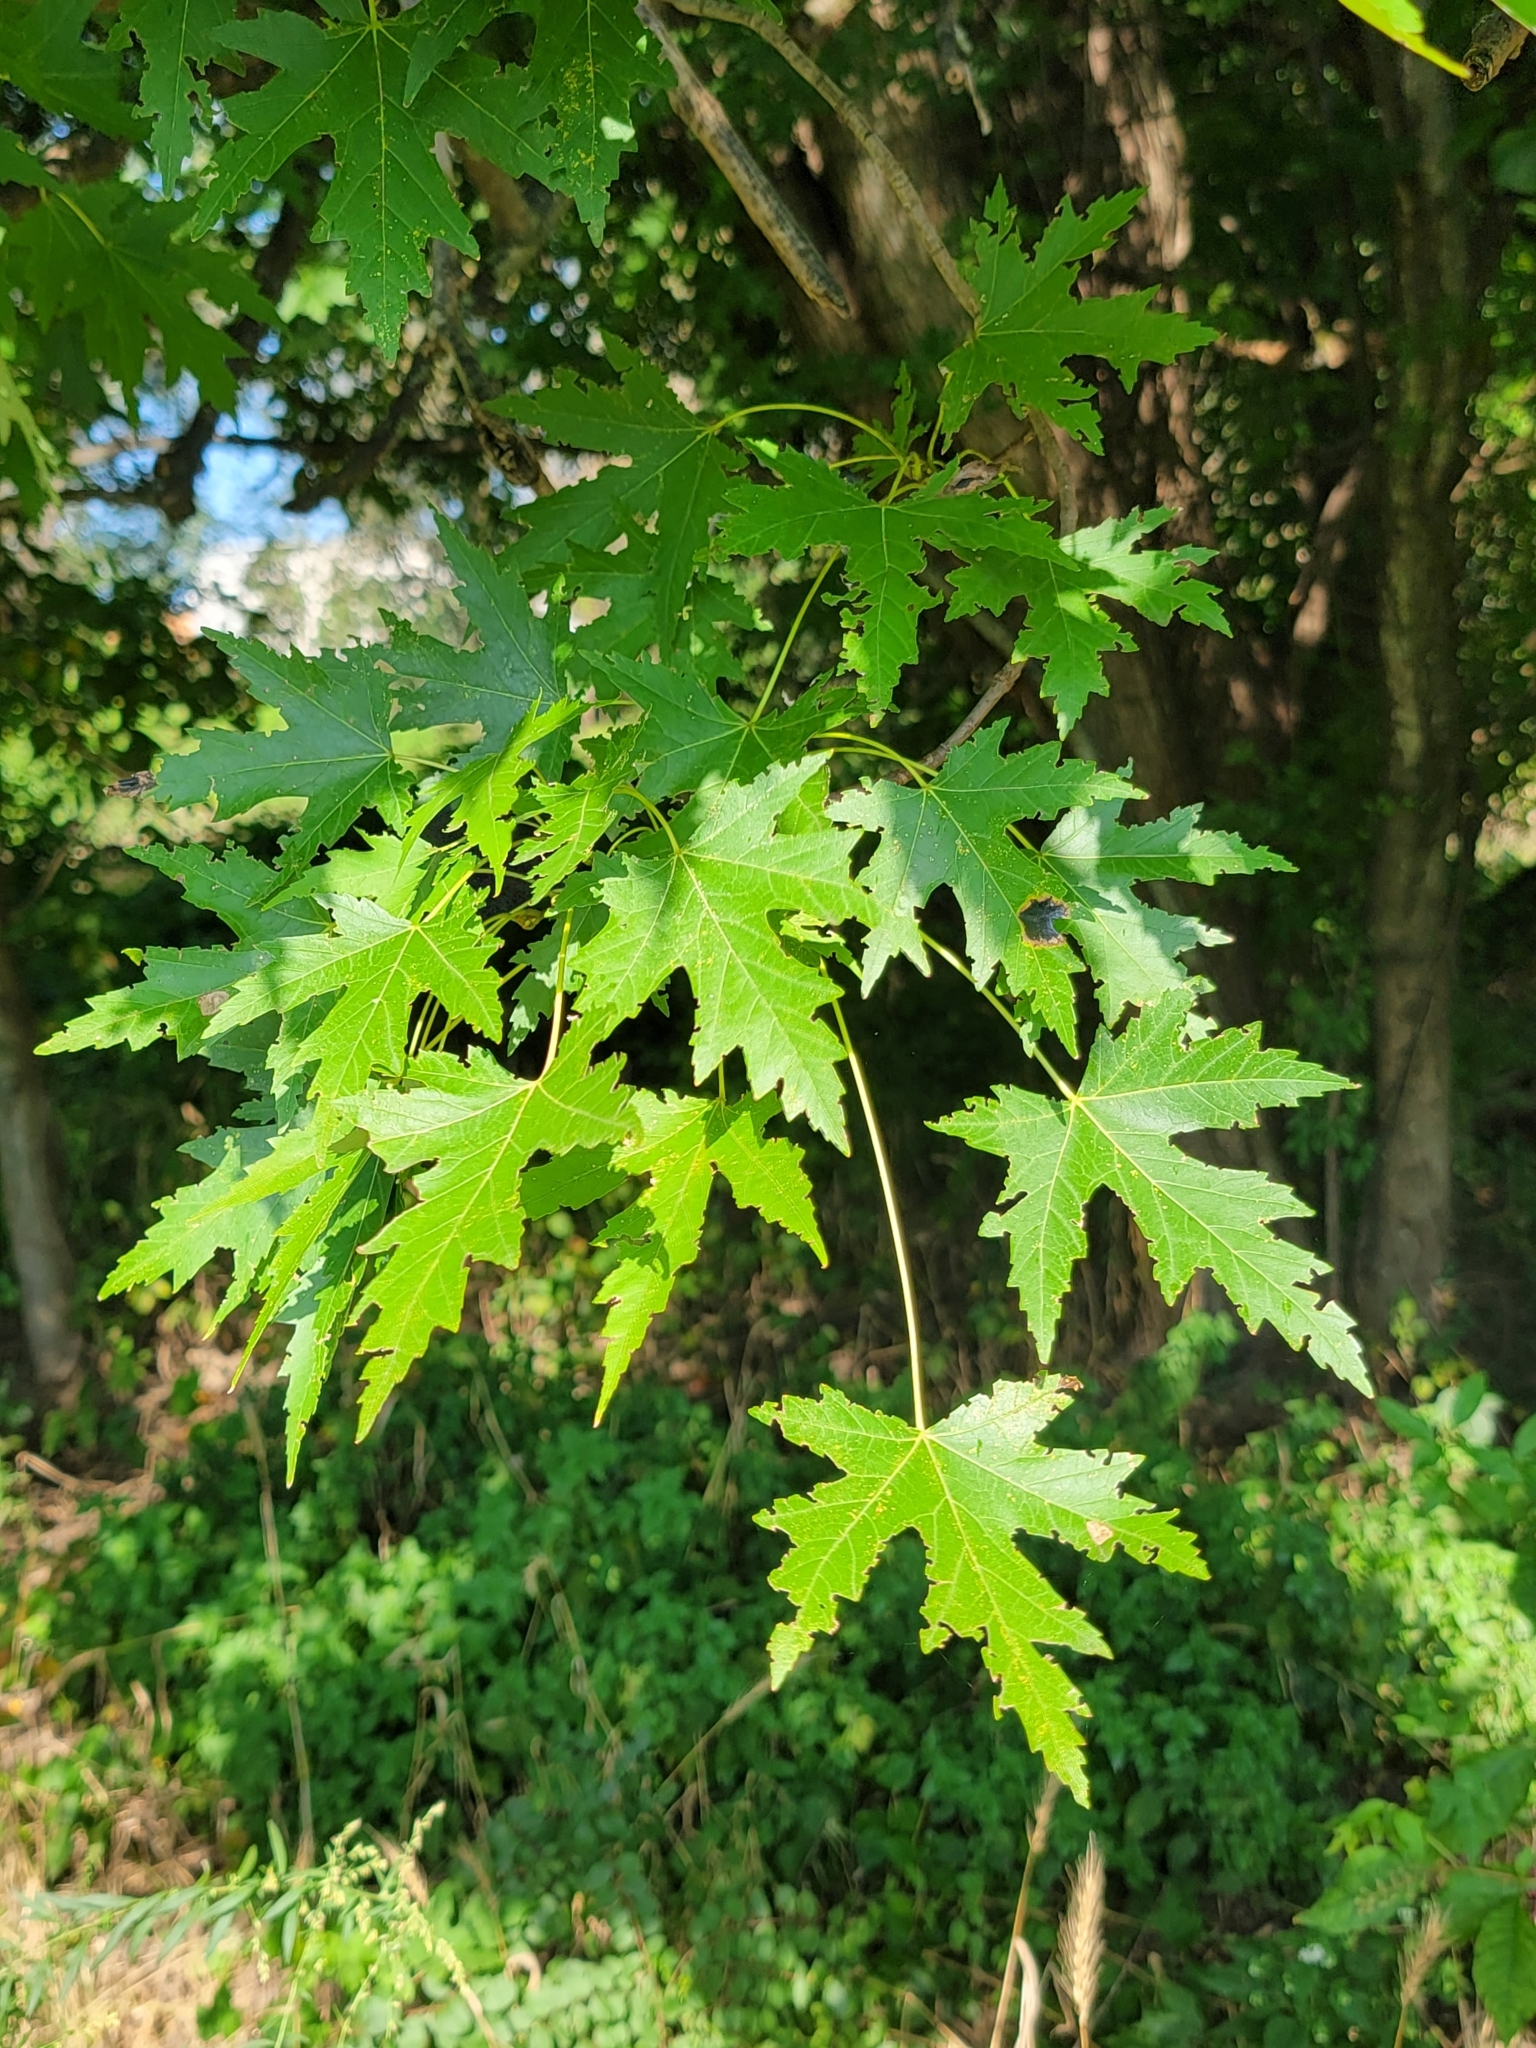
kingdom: Plantae
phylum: Tracheophyta
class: Magnoliopsida
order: Sapindales
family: Sapindaceae
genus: Acer
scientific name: Acer saccharinum
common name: Silver maple
